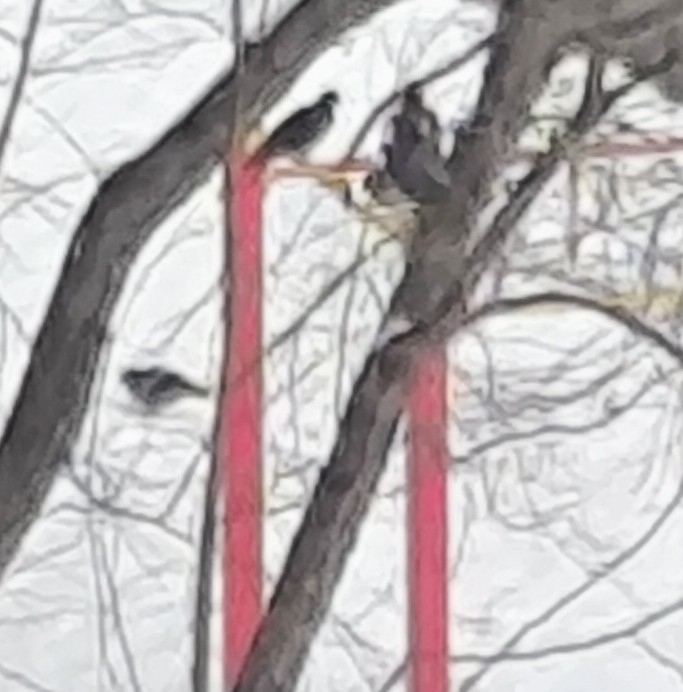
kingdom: Animalia
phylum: Chordata
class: Aves
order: Columbiformes
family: Columbidae
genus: Columba
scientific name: Columba livia
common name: Rock pigeon
